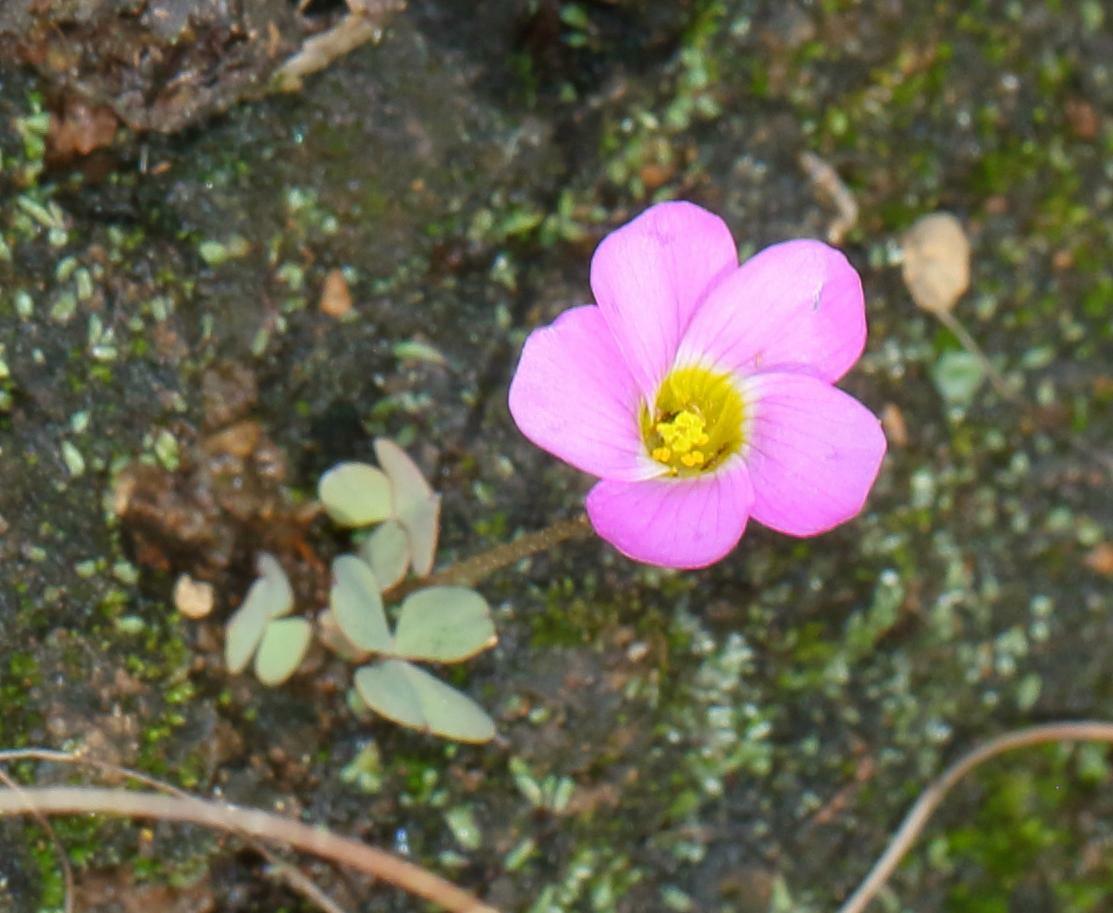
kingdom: Plantae
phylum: Tracheophyta
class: Magnoliopsida
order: Oxalidales
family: Oxalidaceae
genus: Oxalis
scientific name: Oxalis obliquifolia
